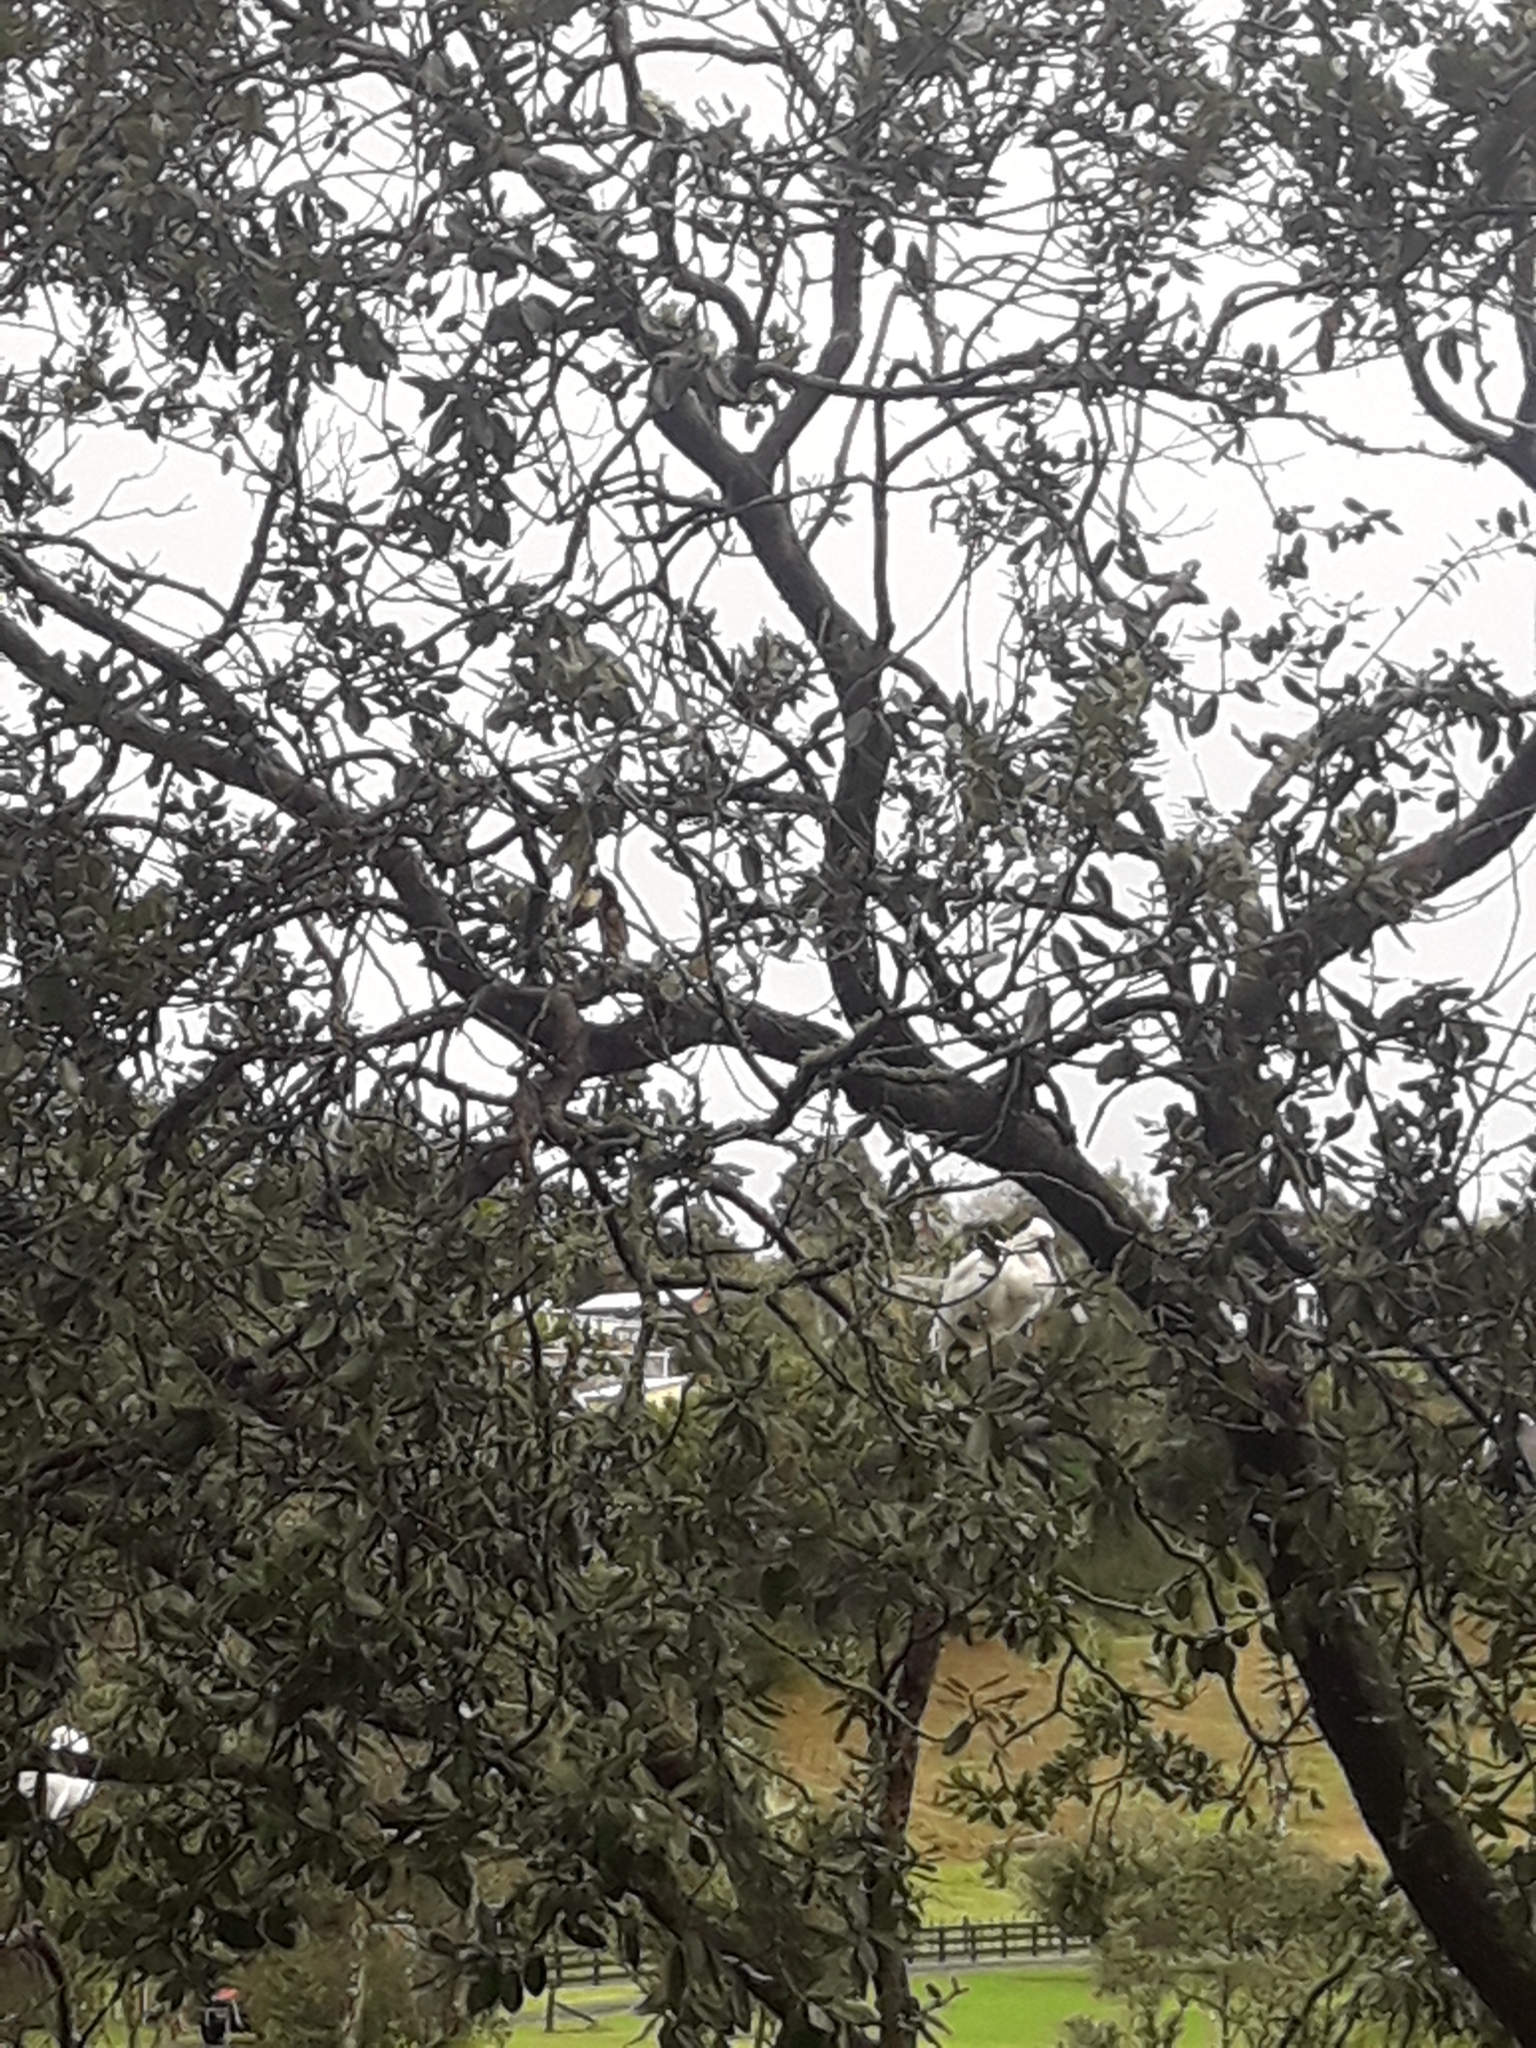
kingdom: Animalia
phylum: Chordata
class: Aves
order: Pelecaniformes
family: Threskiornithidae
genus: Platalea
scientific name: Platalea regia
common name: Royal spoonbill
